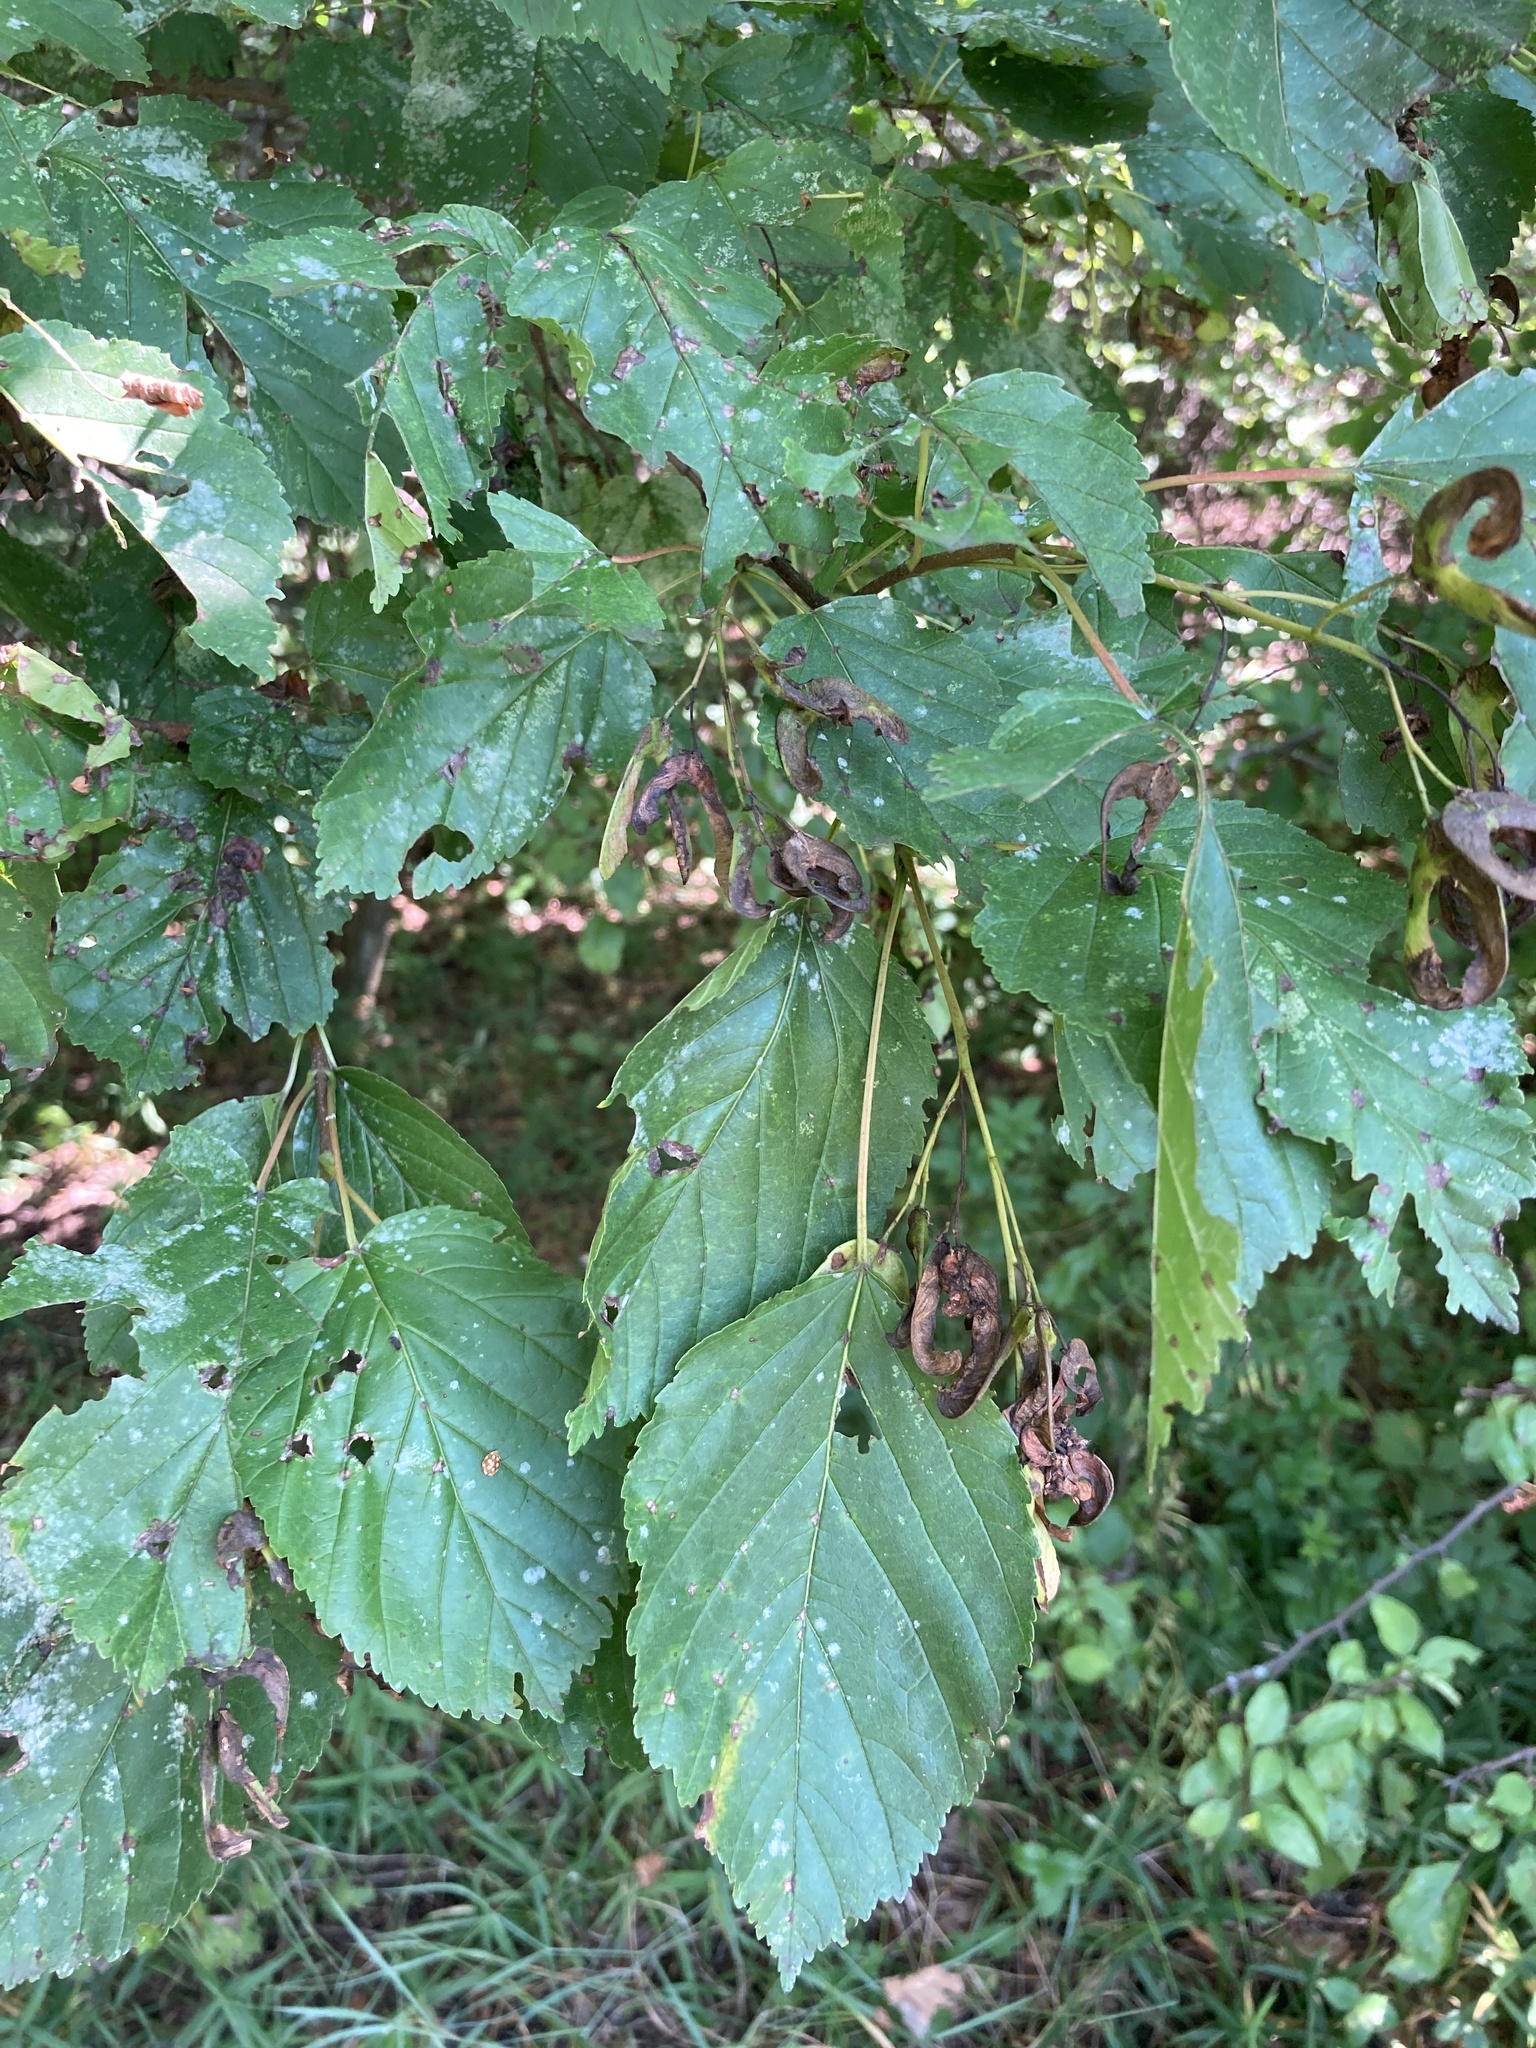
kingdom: Plantae
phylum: Tracheophyta
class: Magnoliopsida
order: Sapindales
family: Sapindaceae
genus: Acer
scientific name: Acer tataricum
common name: Tartar maple
